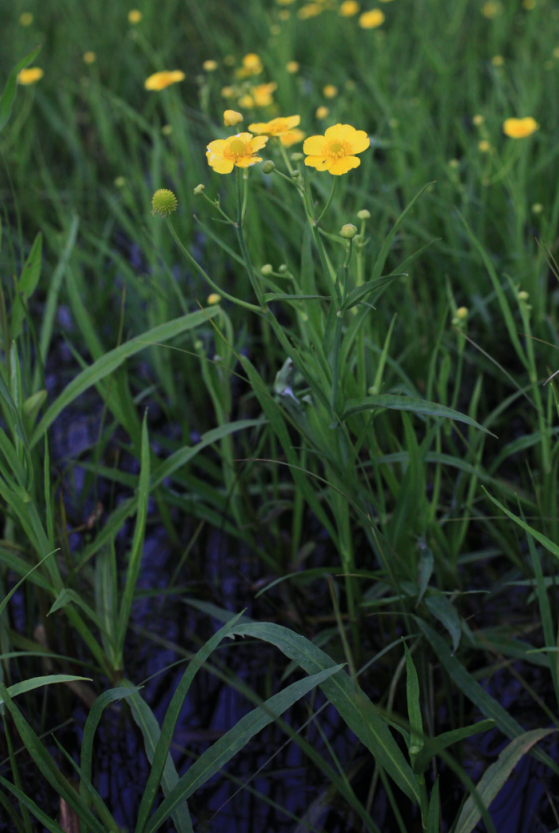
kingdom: Plantae
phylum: Tracheophyta
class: Magnoliopsida
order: Ranunculales
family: Ranunculaceae
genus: Ranunculus
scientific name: Ranunculus lingua
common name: Greater spearwort
